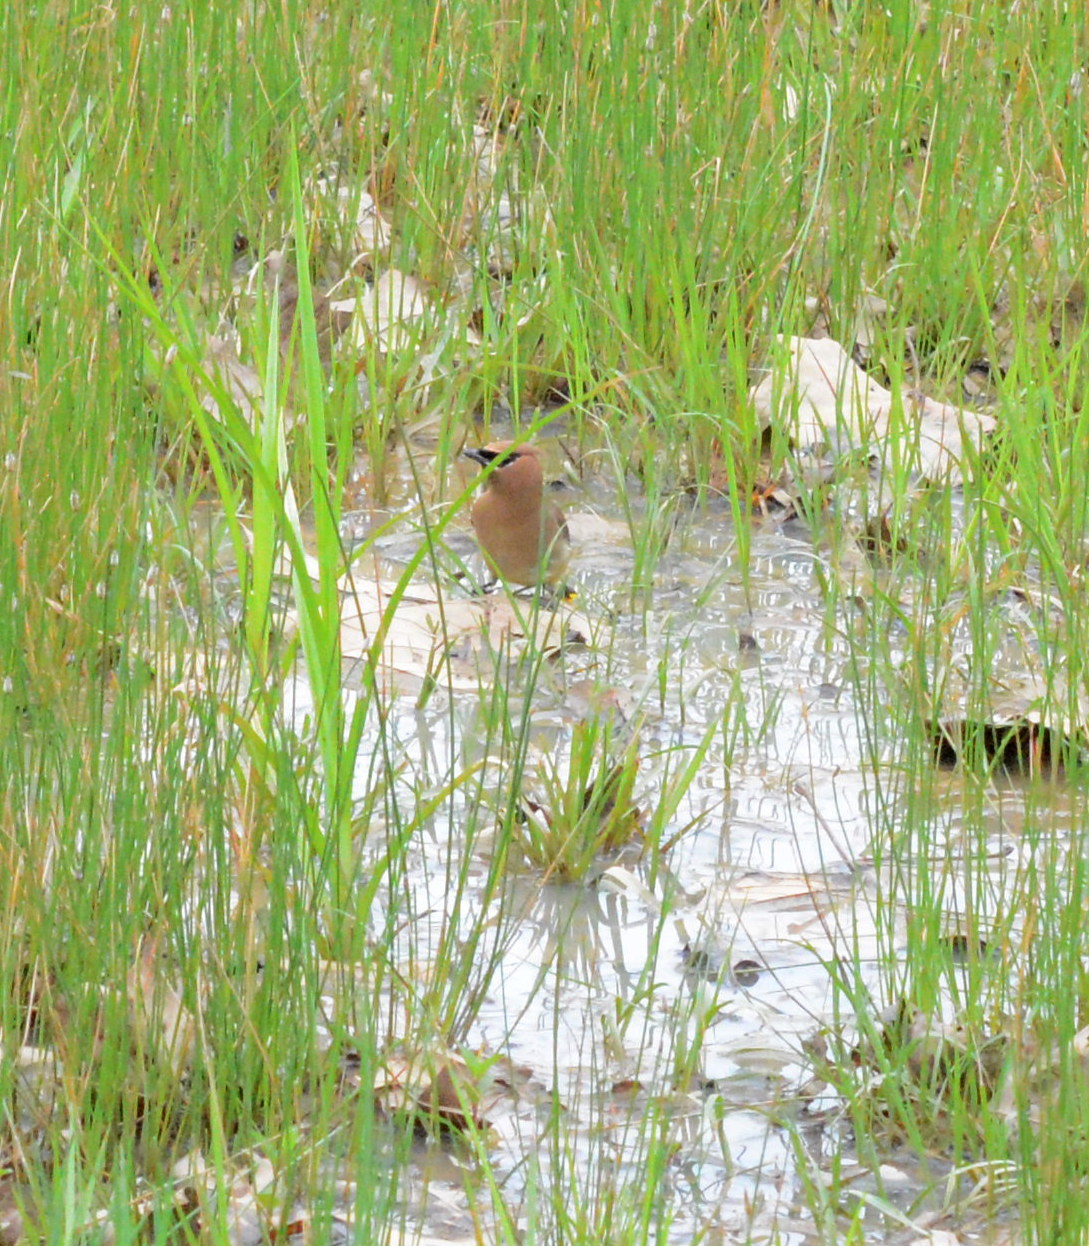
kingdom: Animalia
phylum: Chordata
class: Aves
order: Passeriformes
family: Bombycillidae
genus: Bombycilla
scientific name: Bombycilla cedrorum
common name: Cedar waxwing
